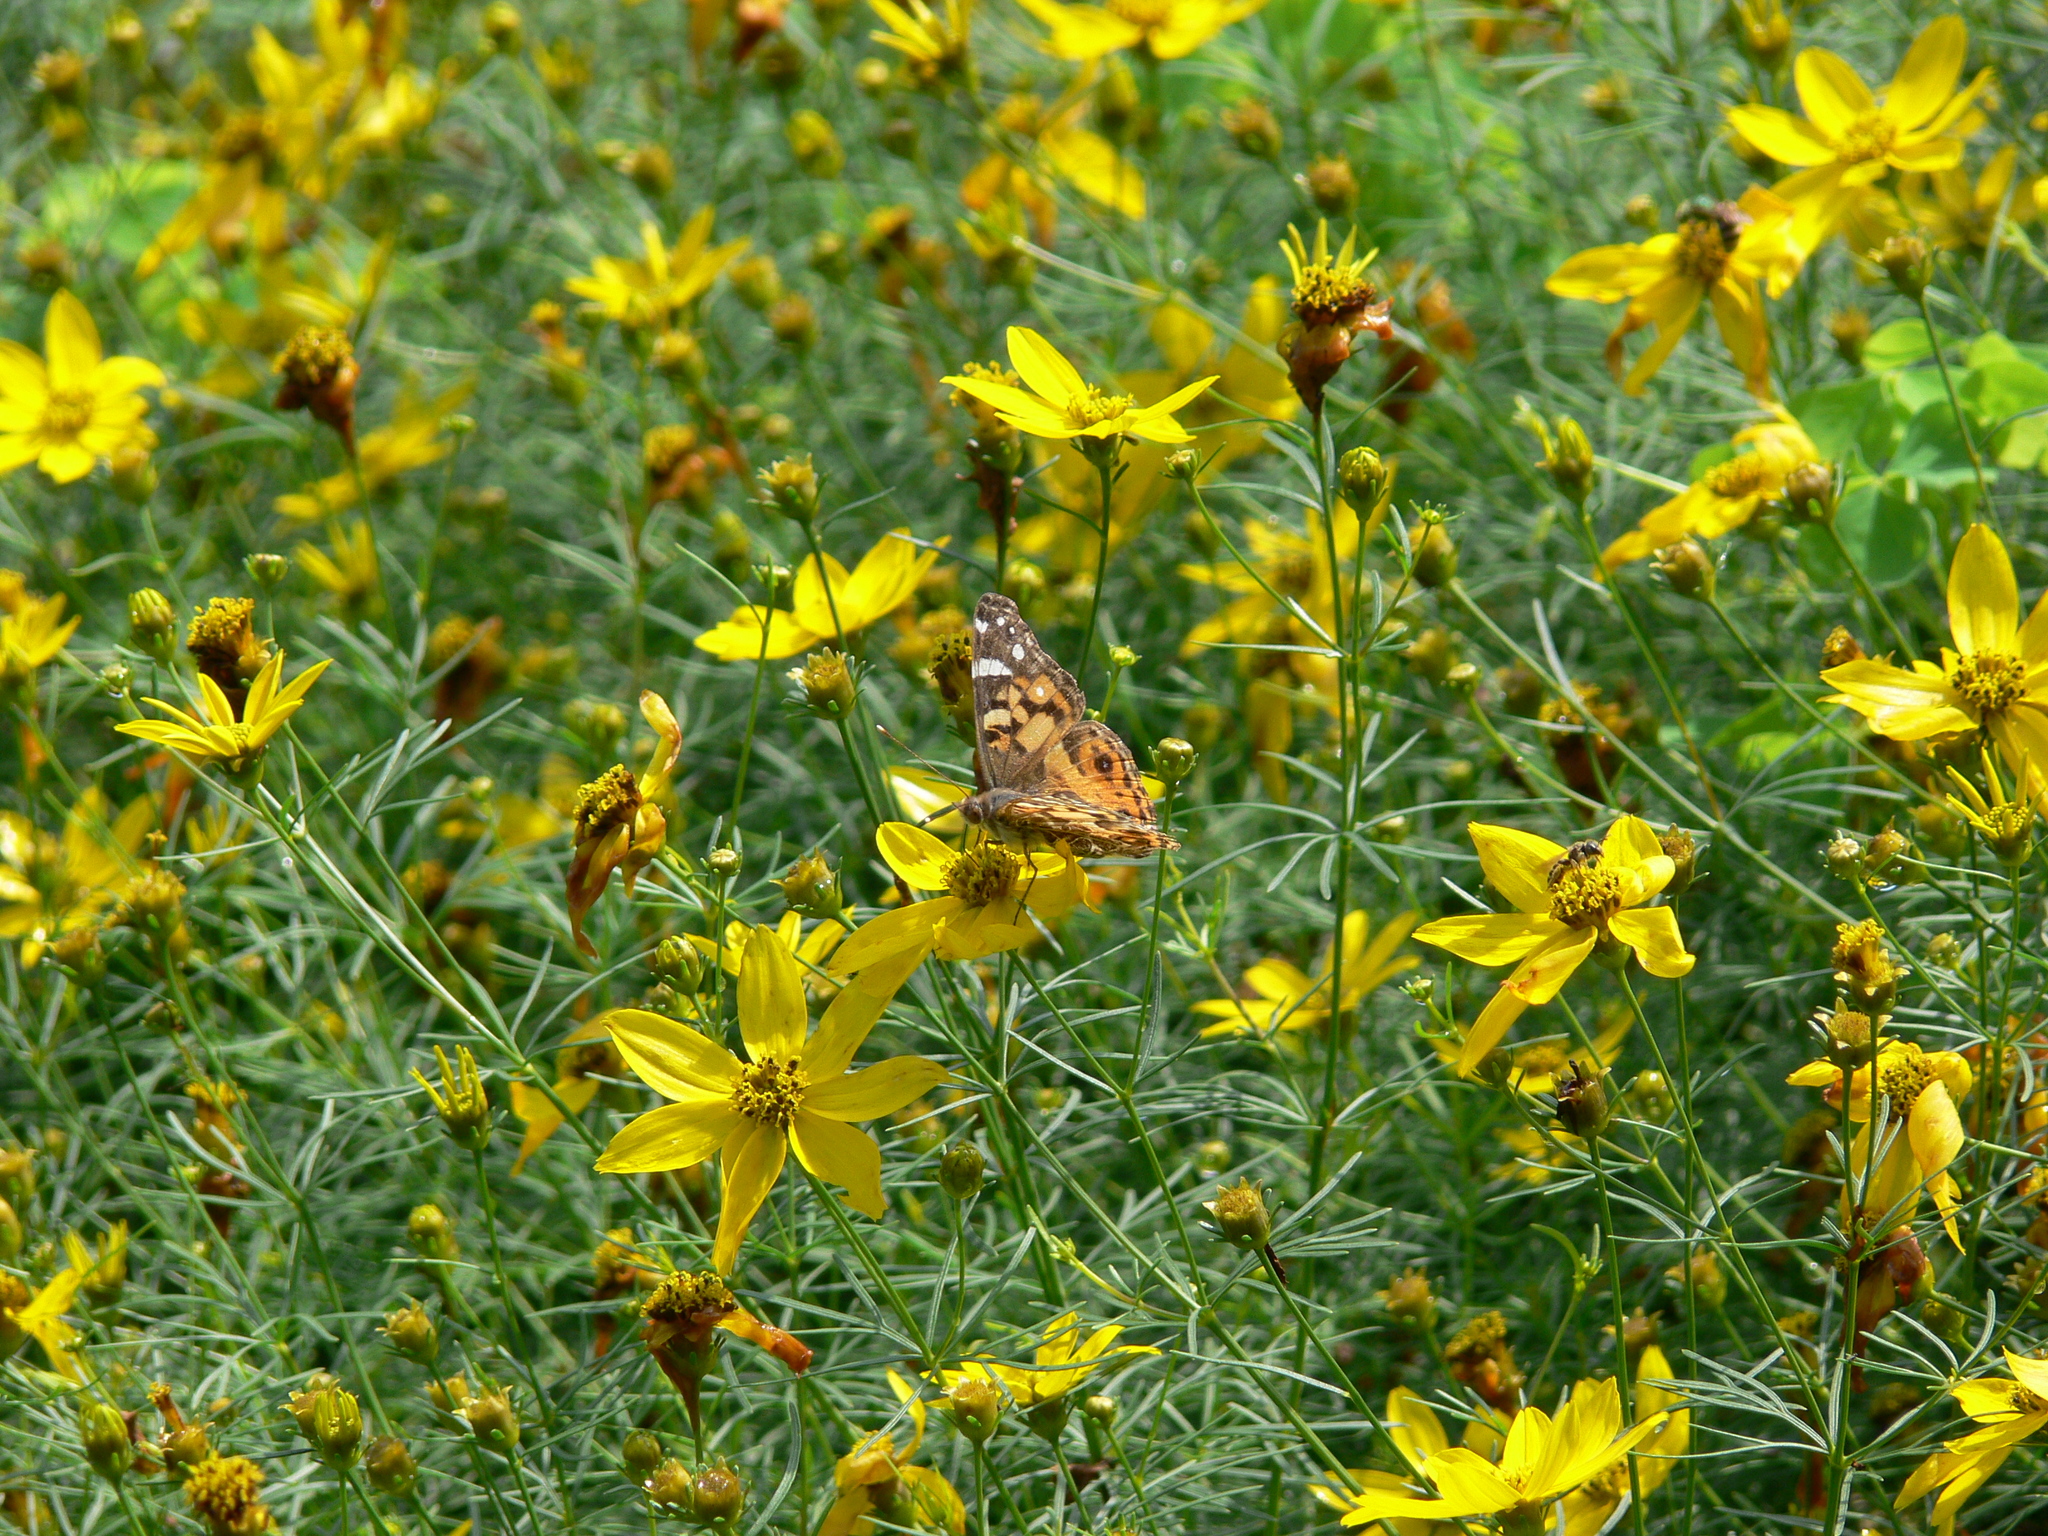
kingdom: Animalia
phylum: Arthropoda
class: Insecta
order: Lepidoptera
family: Nymphalidae
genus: Vanessa
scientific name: Vanessa virginiensis
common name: American lady
